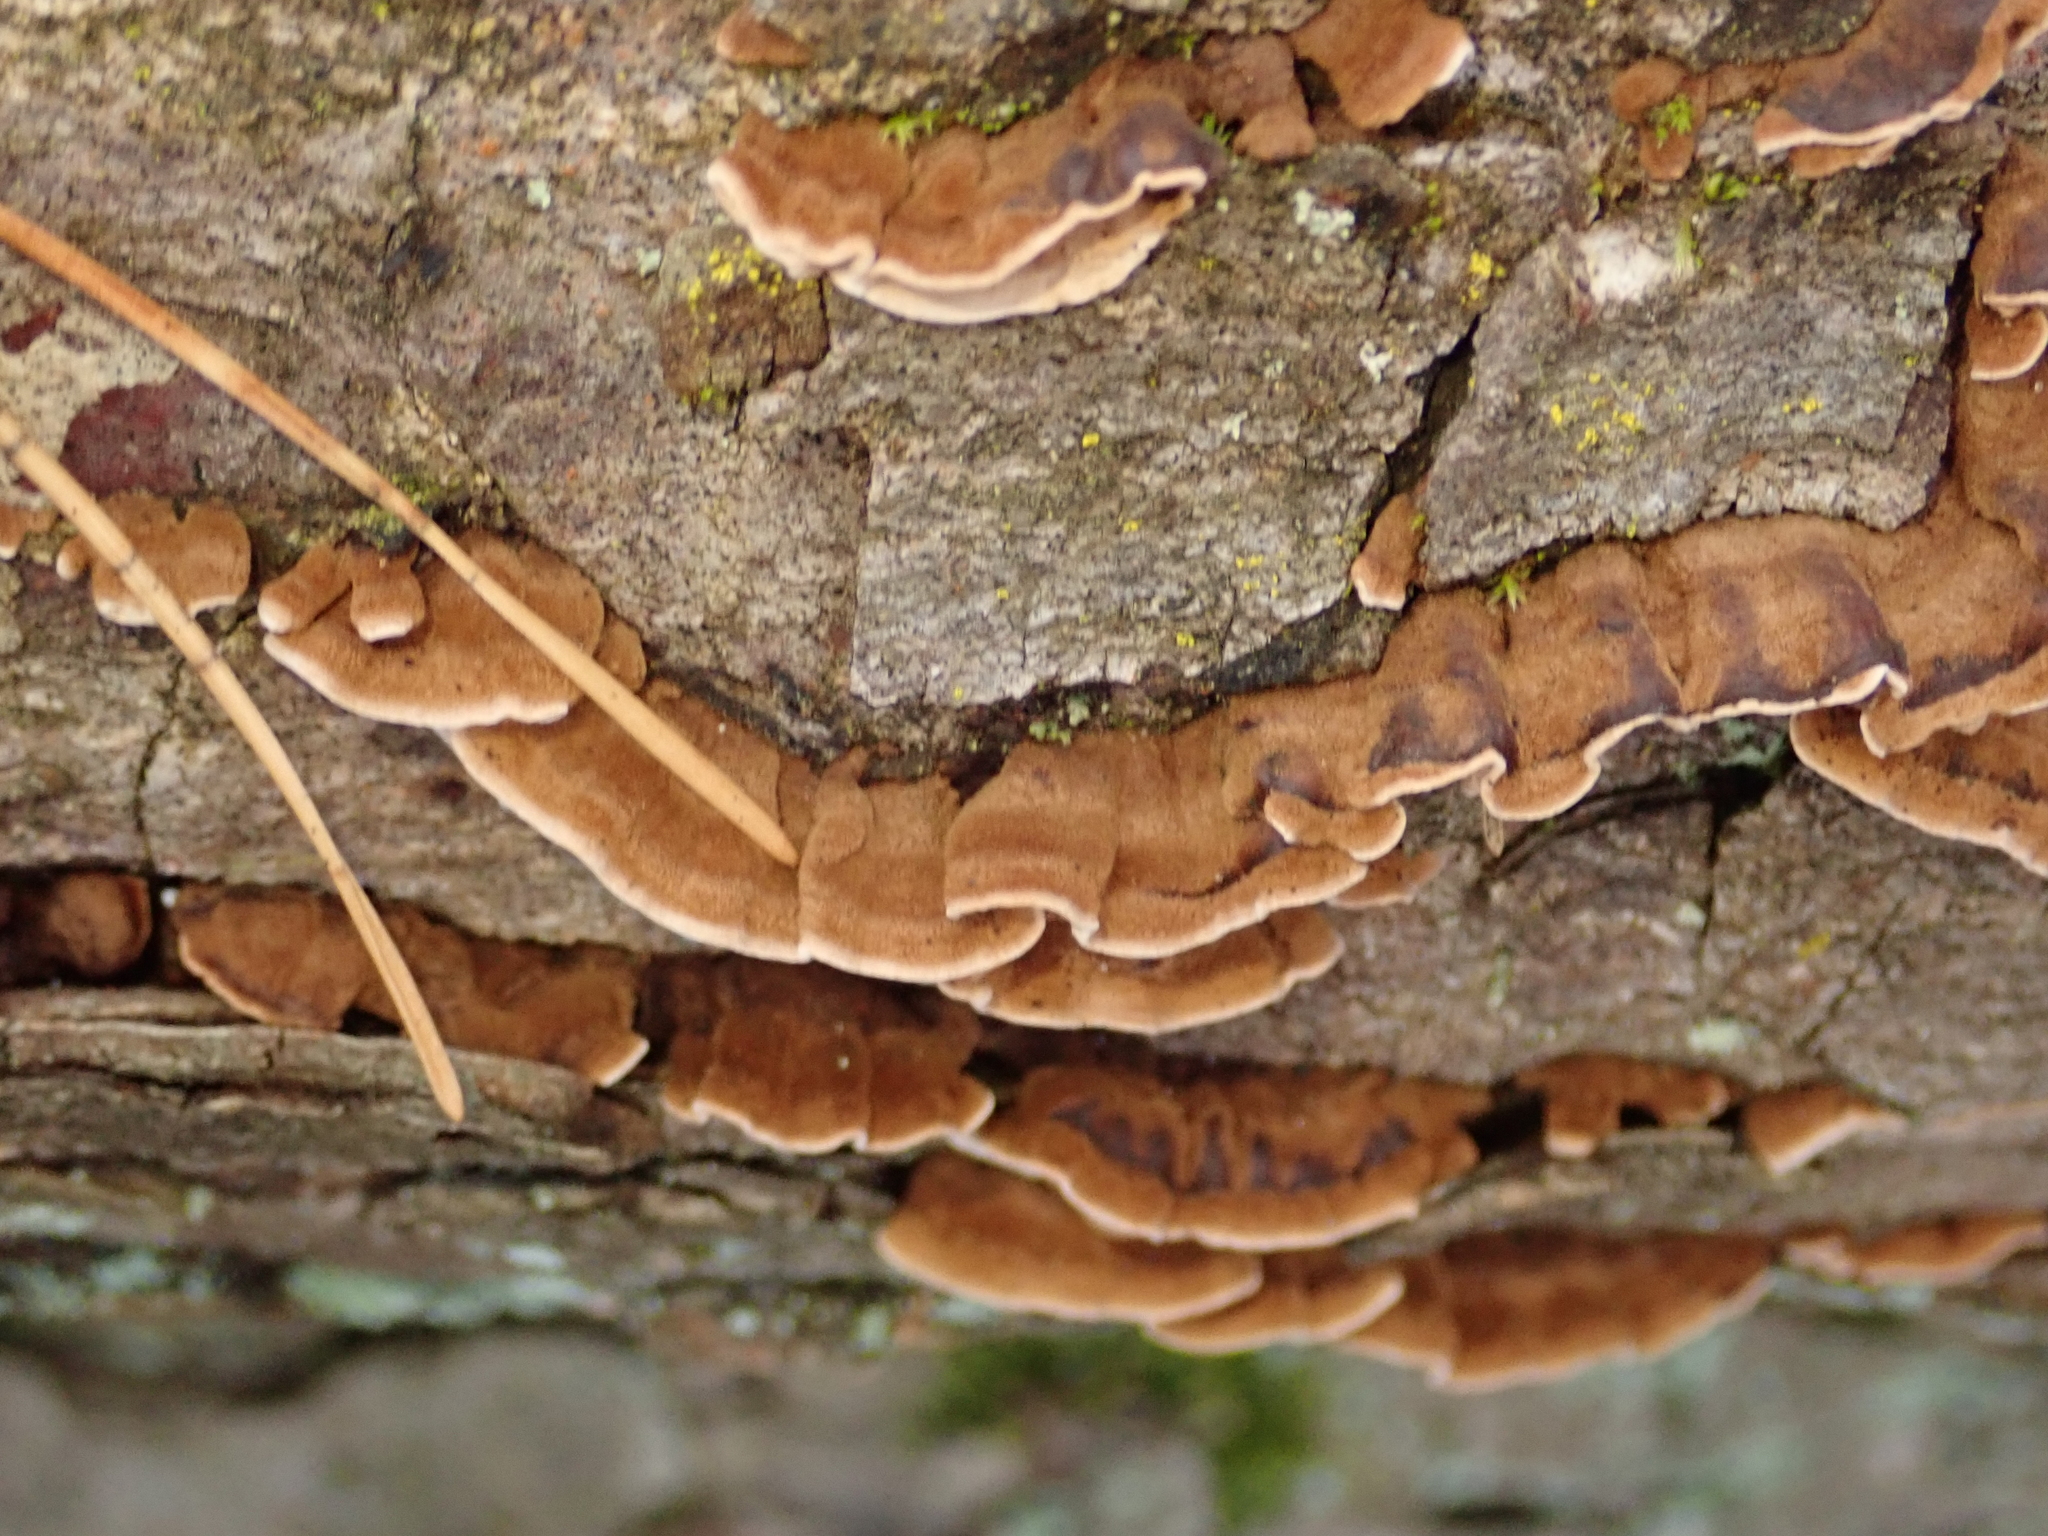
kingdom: Fungi
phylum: Basidiomycota
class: Agaricomycetes
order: Hymenochaetales
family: Hymenochaetaceae
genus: Hydnoporia
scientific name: Hydnoporia tabacina
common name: Willow glue
